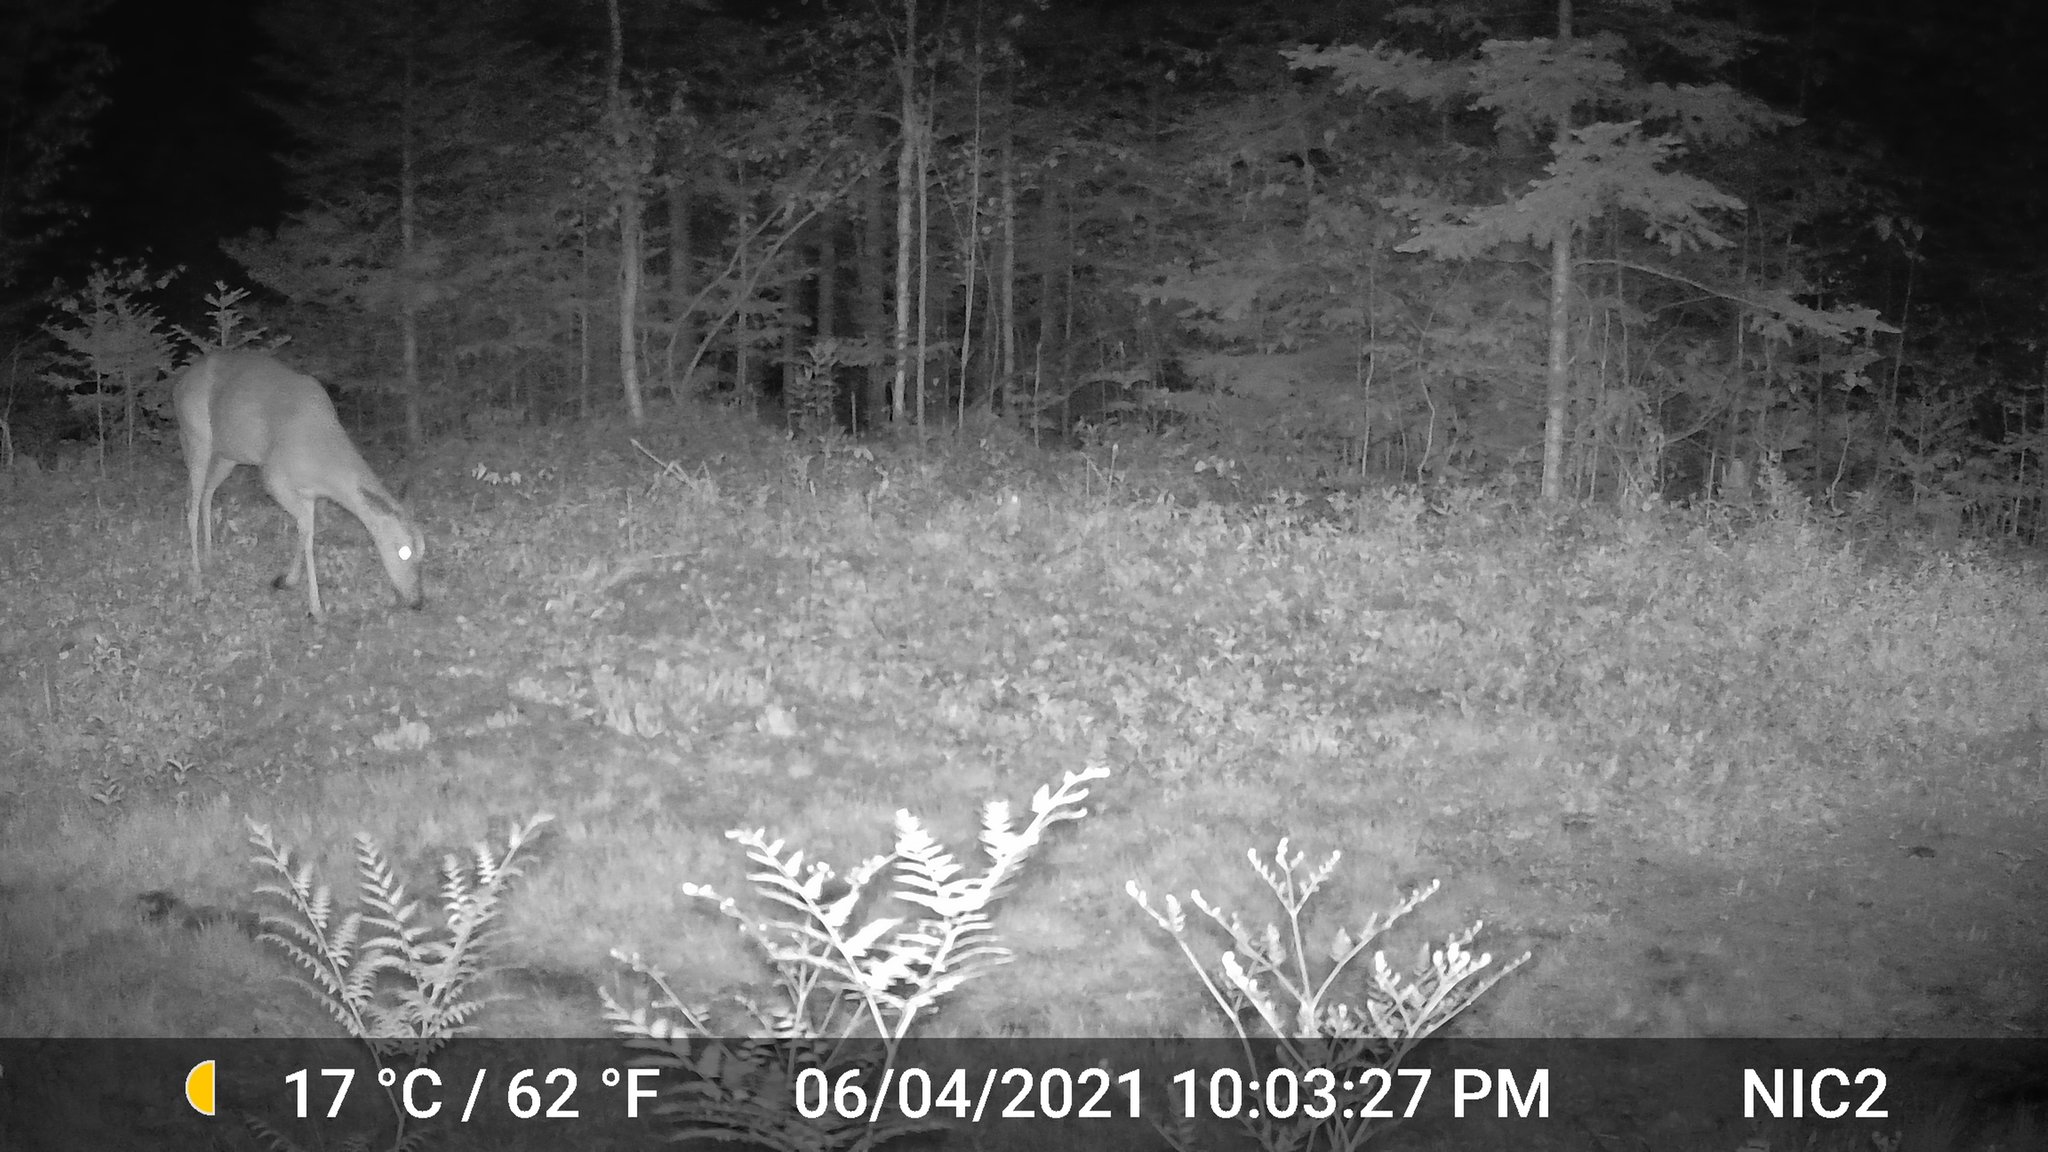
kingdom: Animalia
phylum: Chordata
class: Mammalia
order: Artiodactyla
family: Cervidae
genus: Odocoileus
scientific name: Odocoileus virginianus
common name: White-tailed deer
